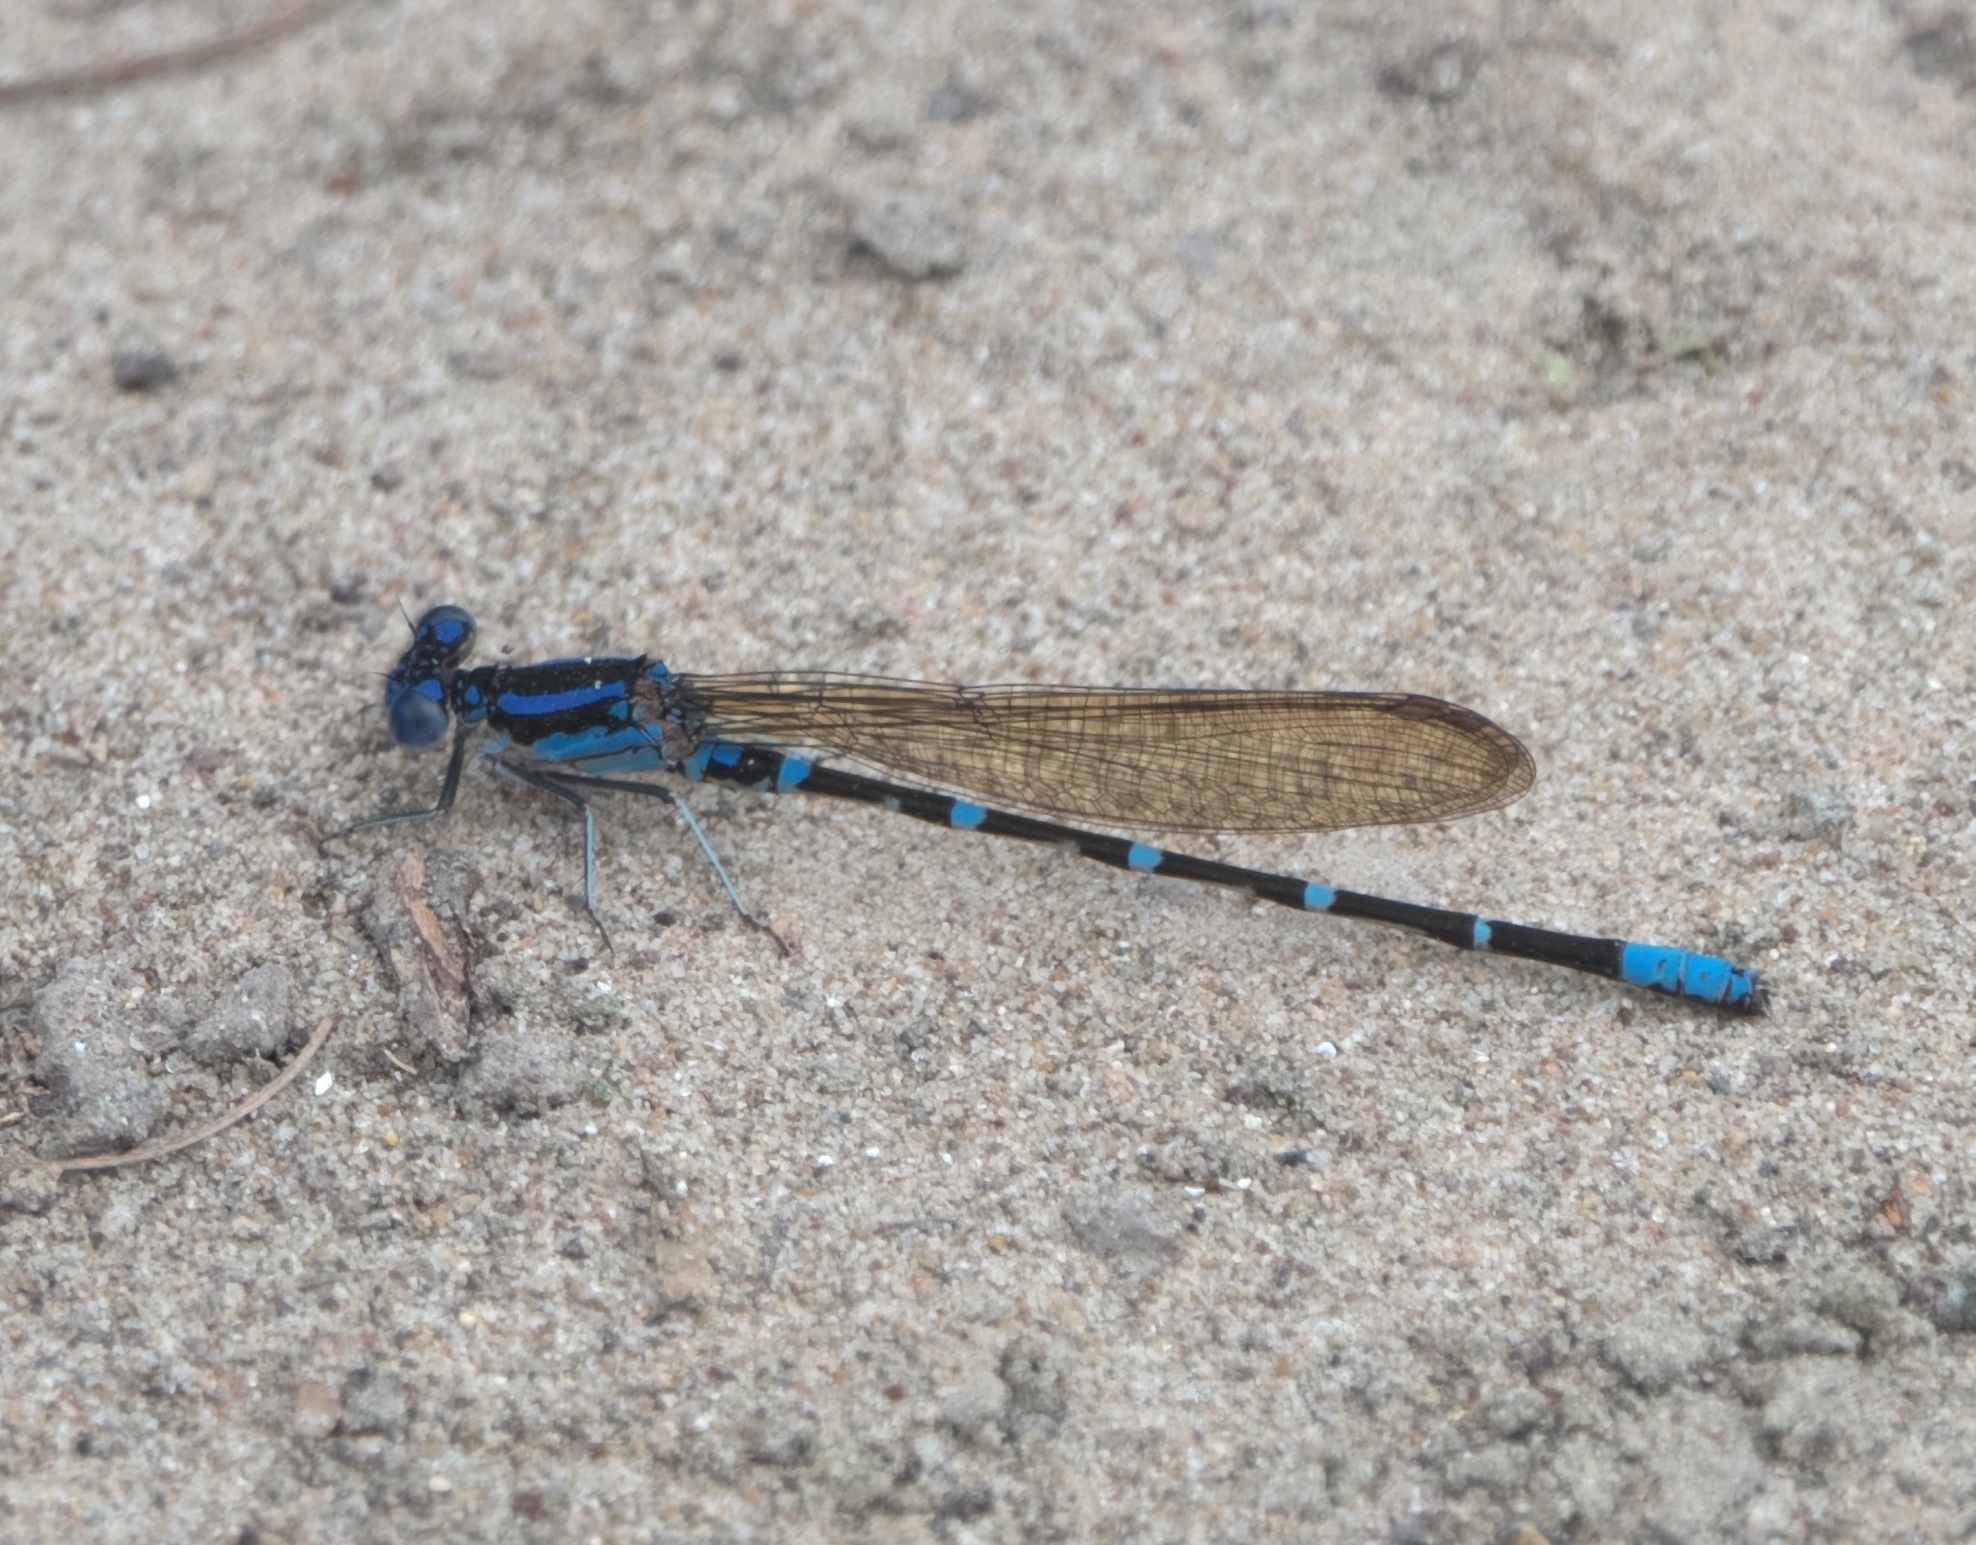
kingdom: Animalia
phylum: Arthropoda
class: Insecta
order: Odonata
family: Coenagrionidae
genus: Argia
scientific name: Argia sedula
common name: Blue-ringed dancer
